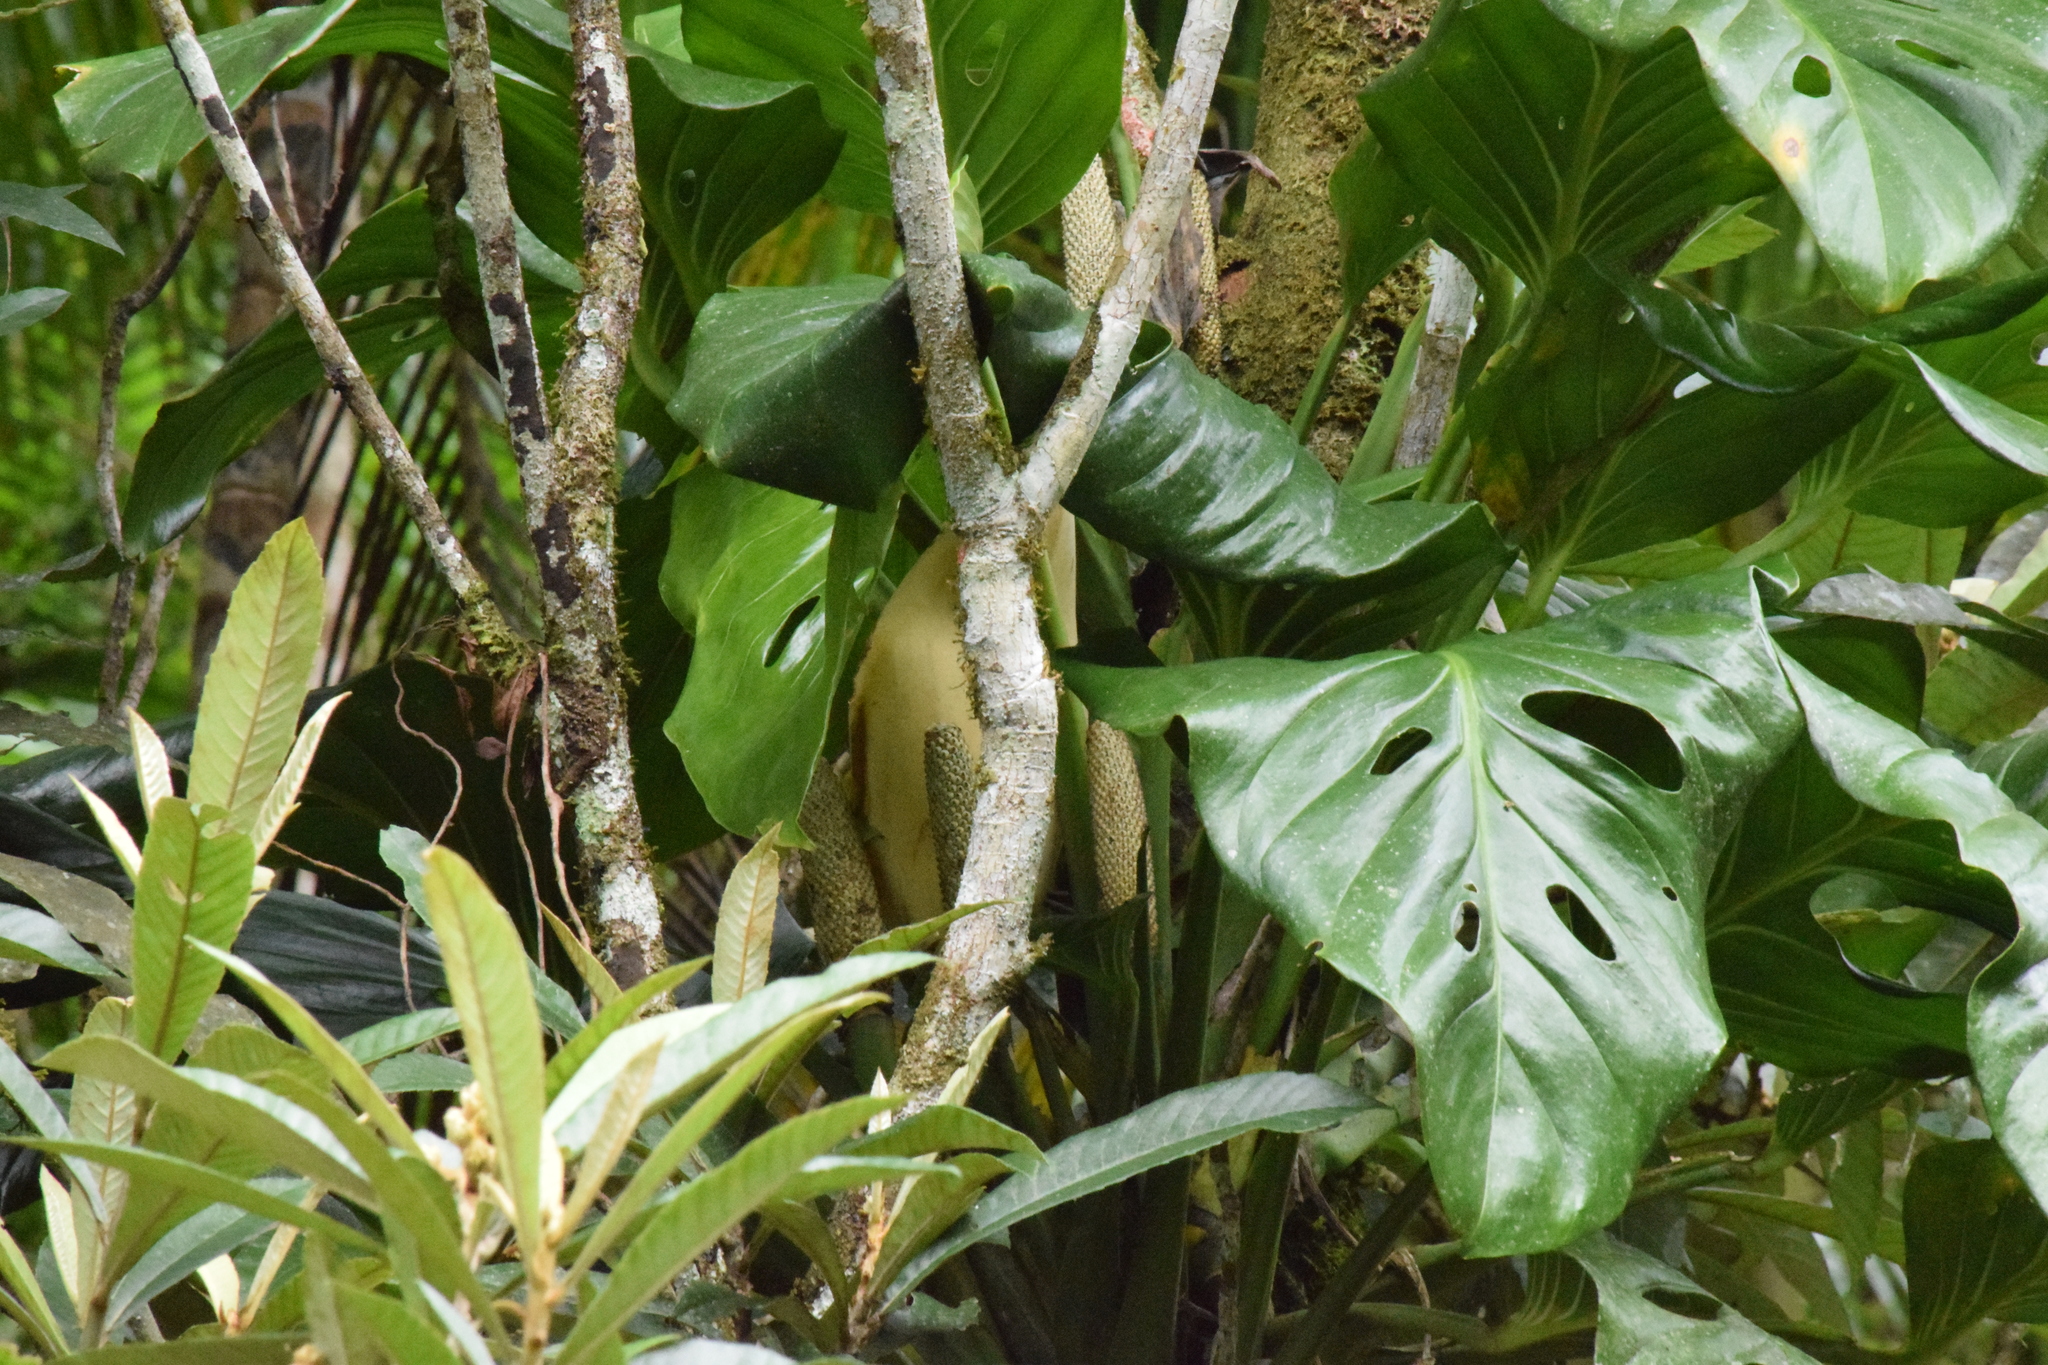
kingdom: Plantae
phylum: Tracheophyta
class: Liliopsida
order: Alismatales
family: Araceae
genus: Monstera
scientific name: Monstera adansonii
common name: Tarovine
